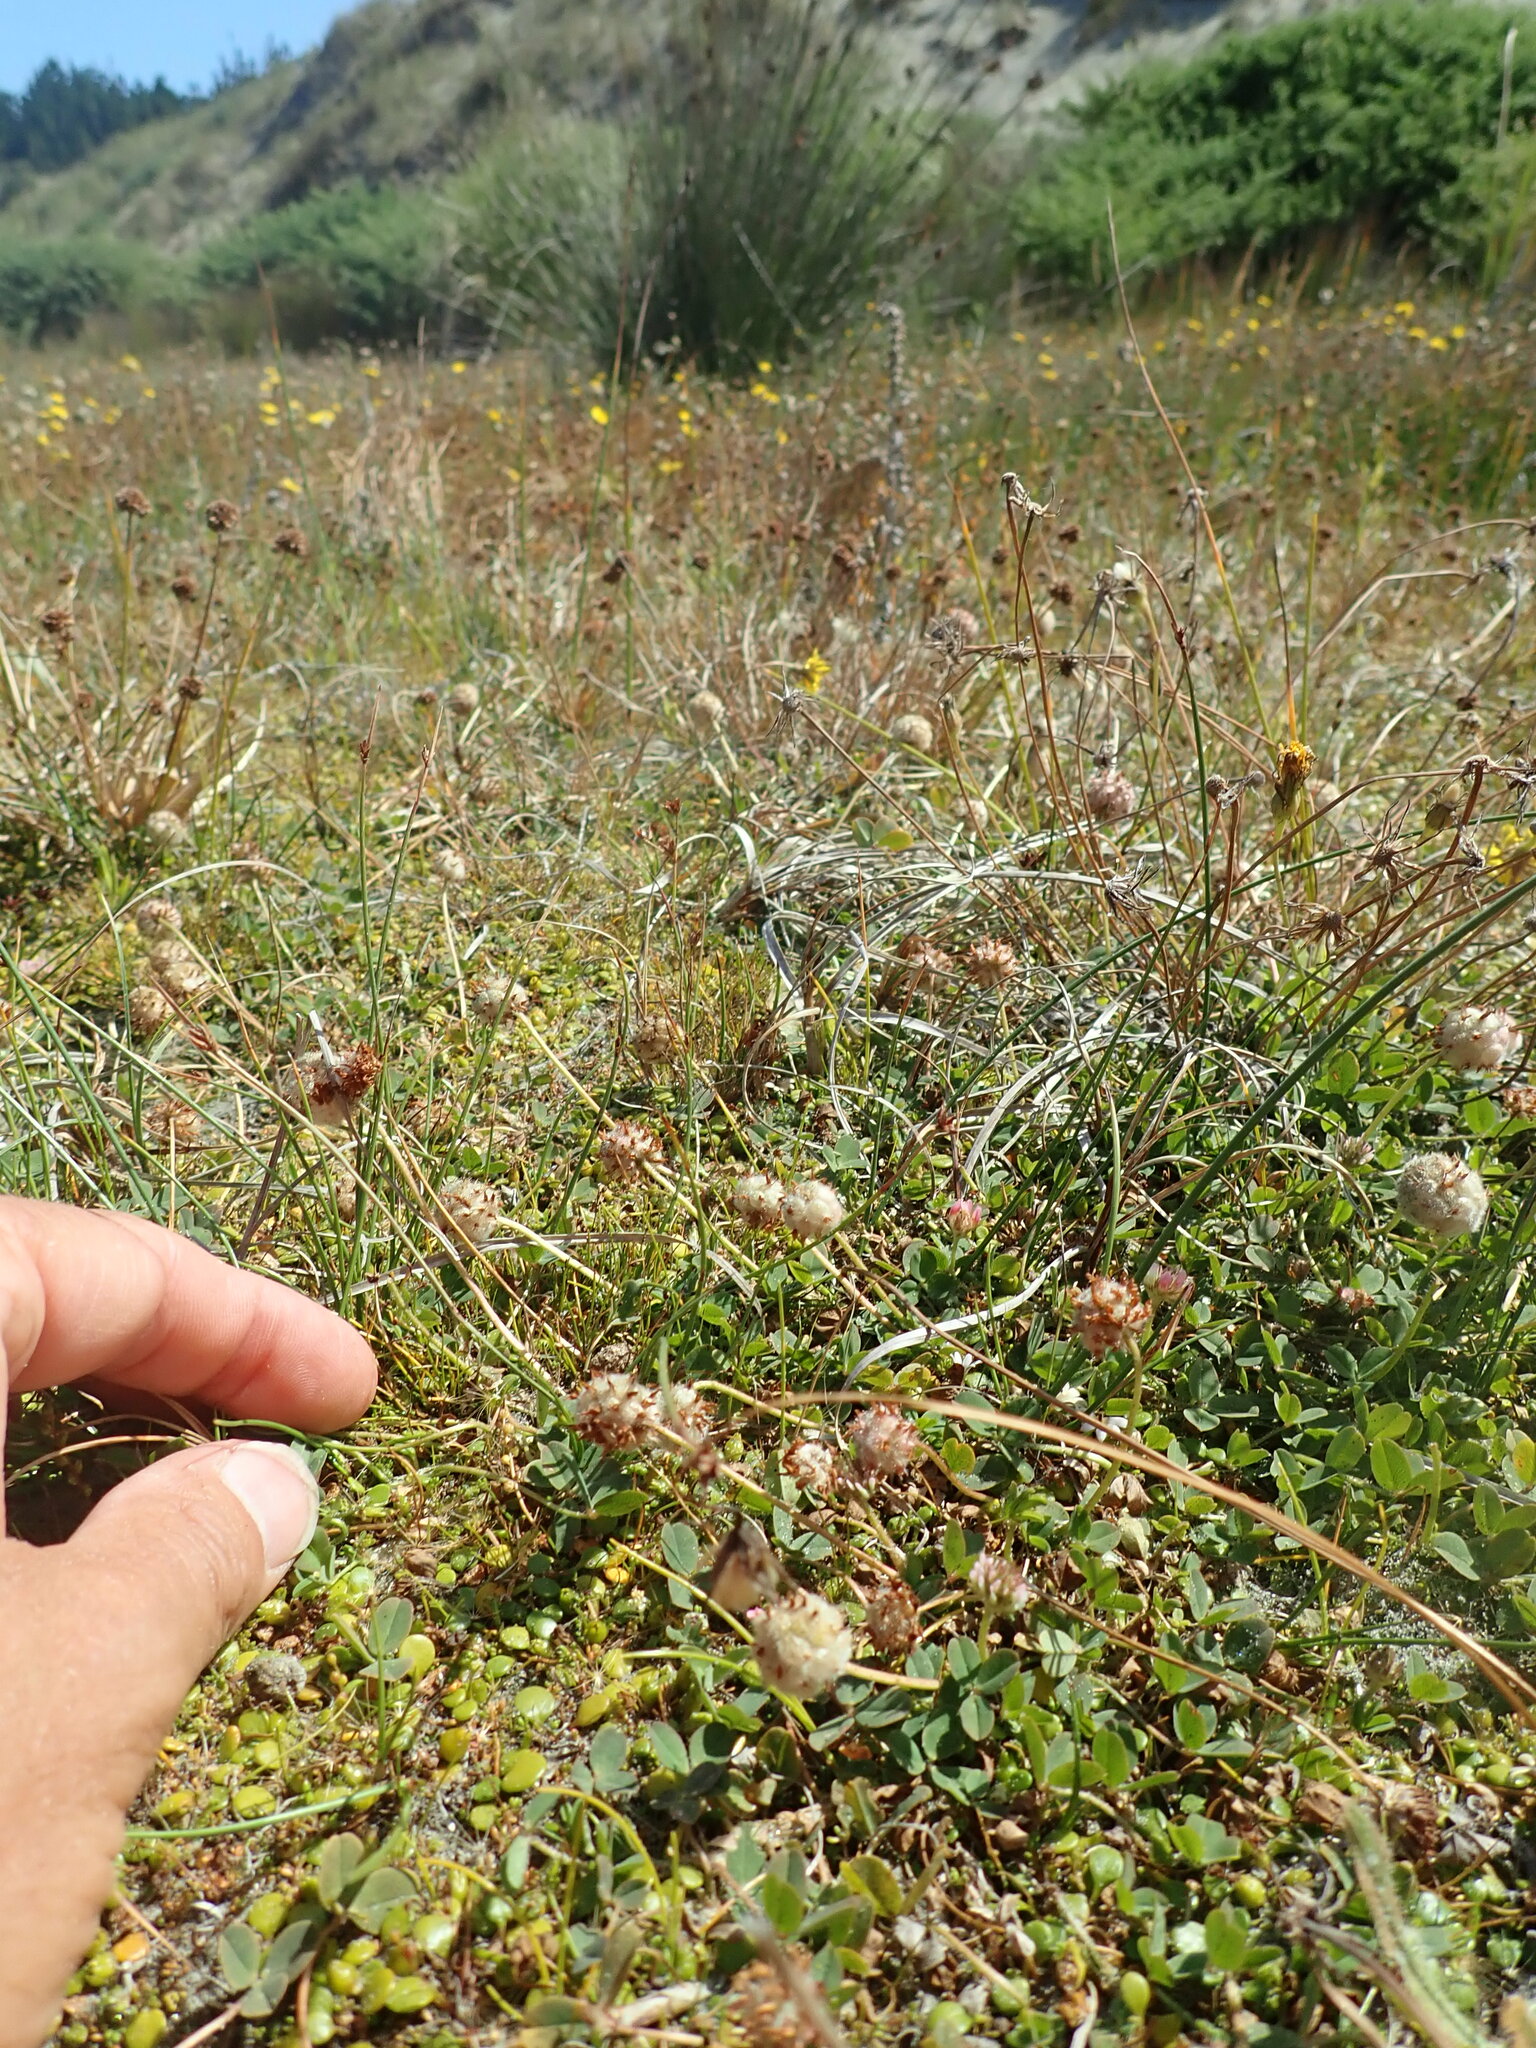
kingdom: Plantae
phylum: Tracheophyta
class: Magnoliopsida
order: Fabales
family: Fabaceae
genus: Trifolium
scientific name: Trifolium fragiferum
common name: Strawberry clover
